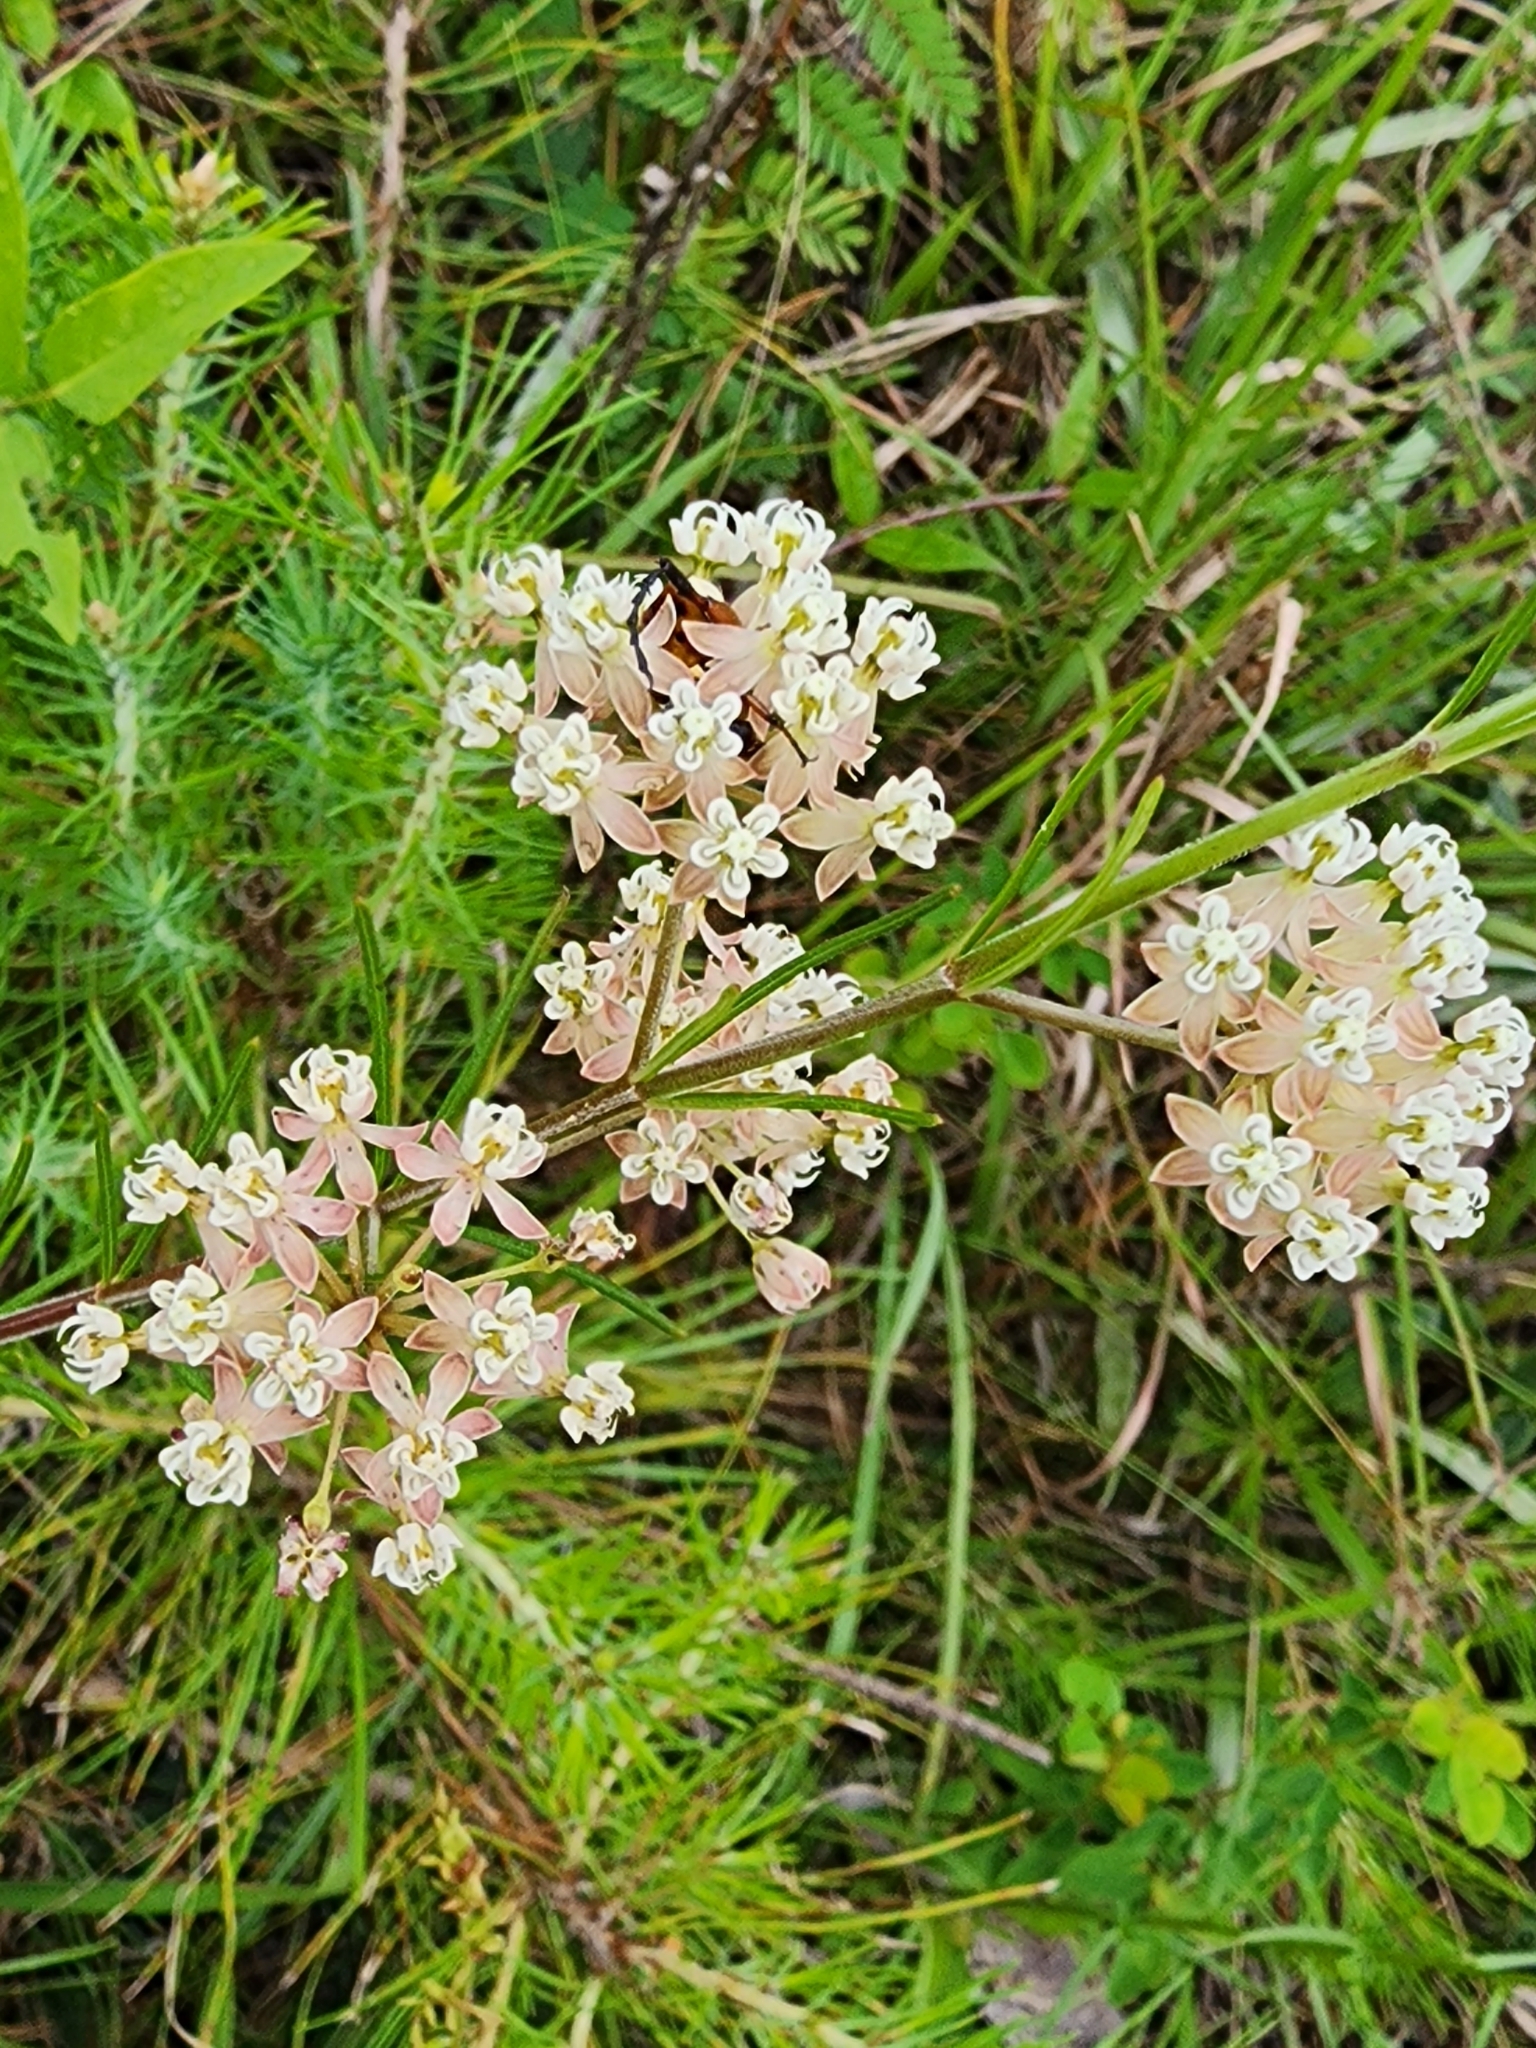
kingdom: Plantae
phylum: Tracheophyta
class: Magnoliopsida
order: Gentianales
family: Apocynaceae
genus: Asclepias
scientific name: Asclepias verticillata
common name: Eastern whorled milkweed
